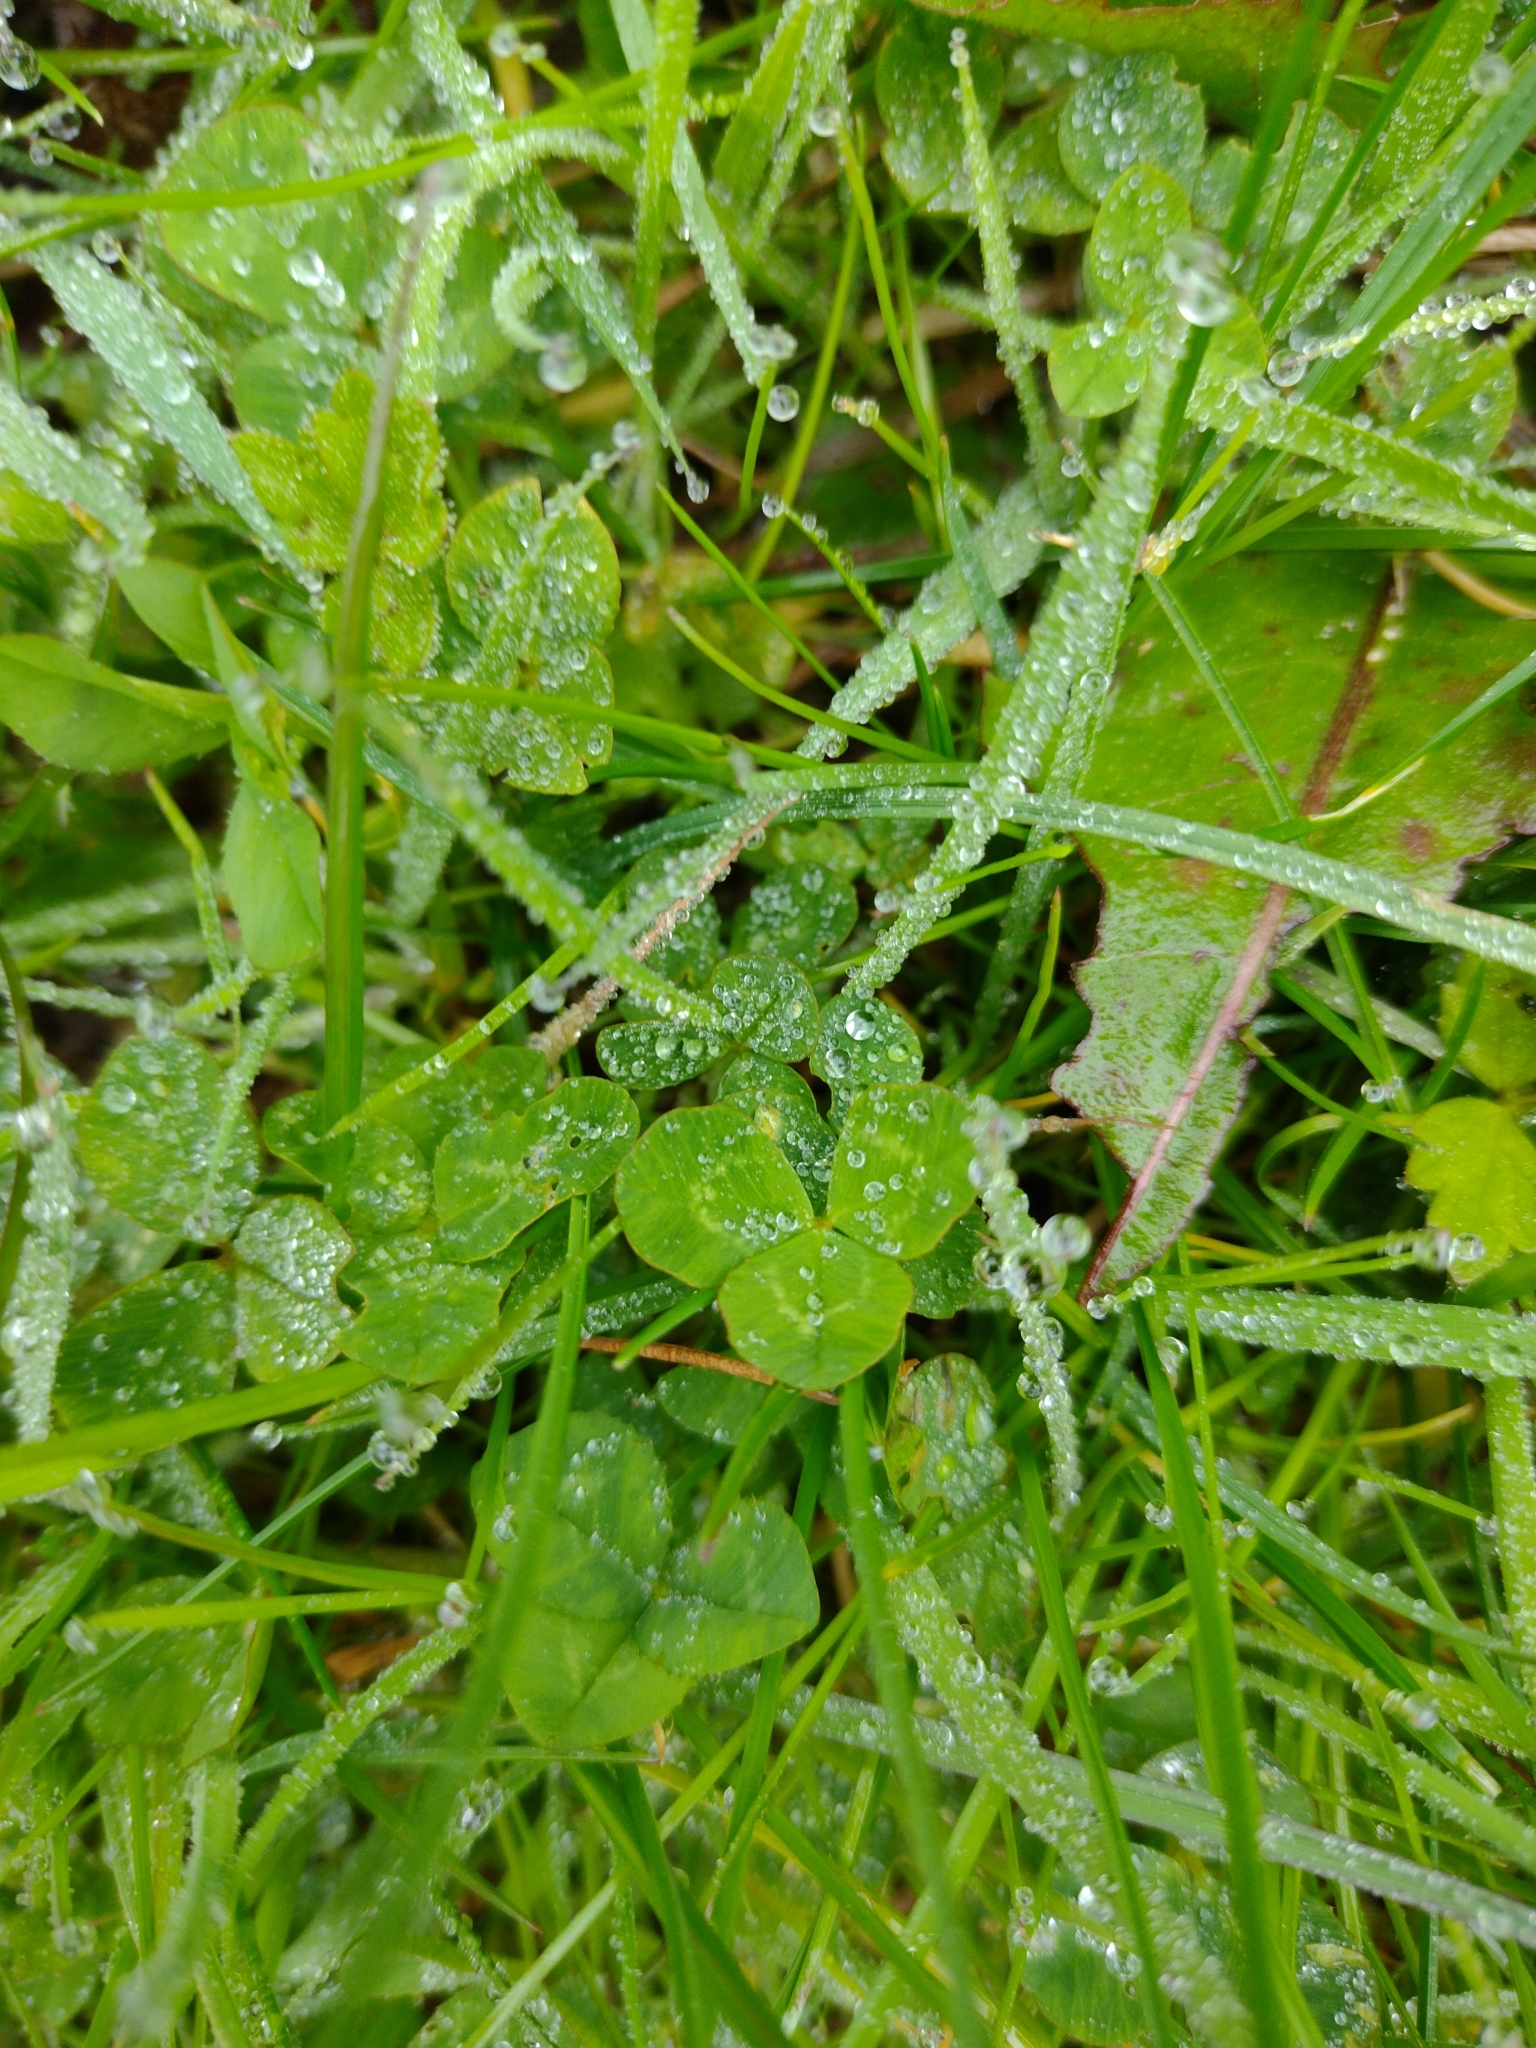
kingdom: Plantae
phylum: Tracheophyta
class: Magnoliopsida
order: Fabales
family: Fabaceae
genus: Trifolium
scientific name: Trifolium repens
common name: White clover
